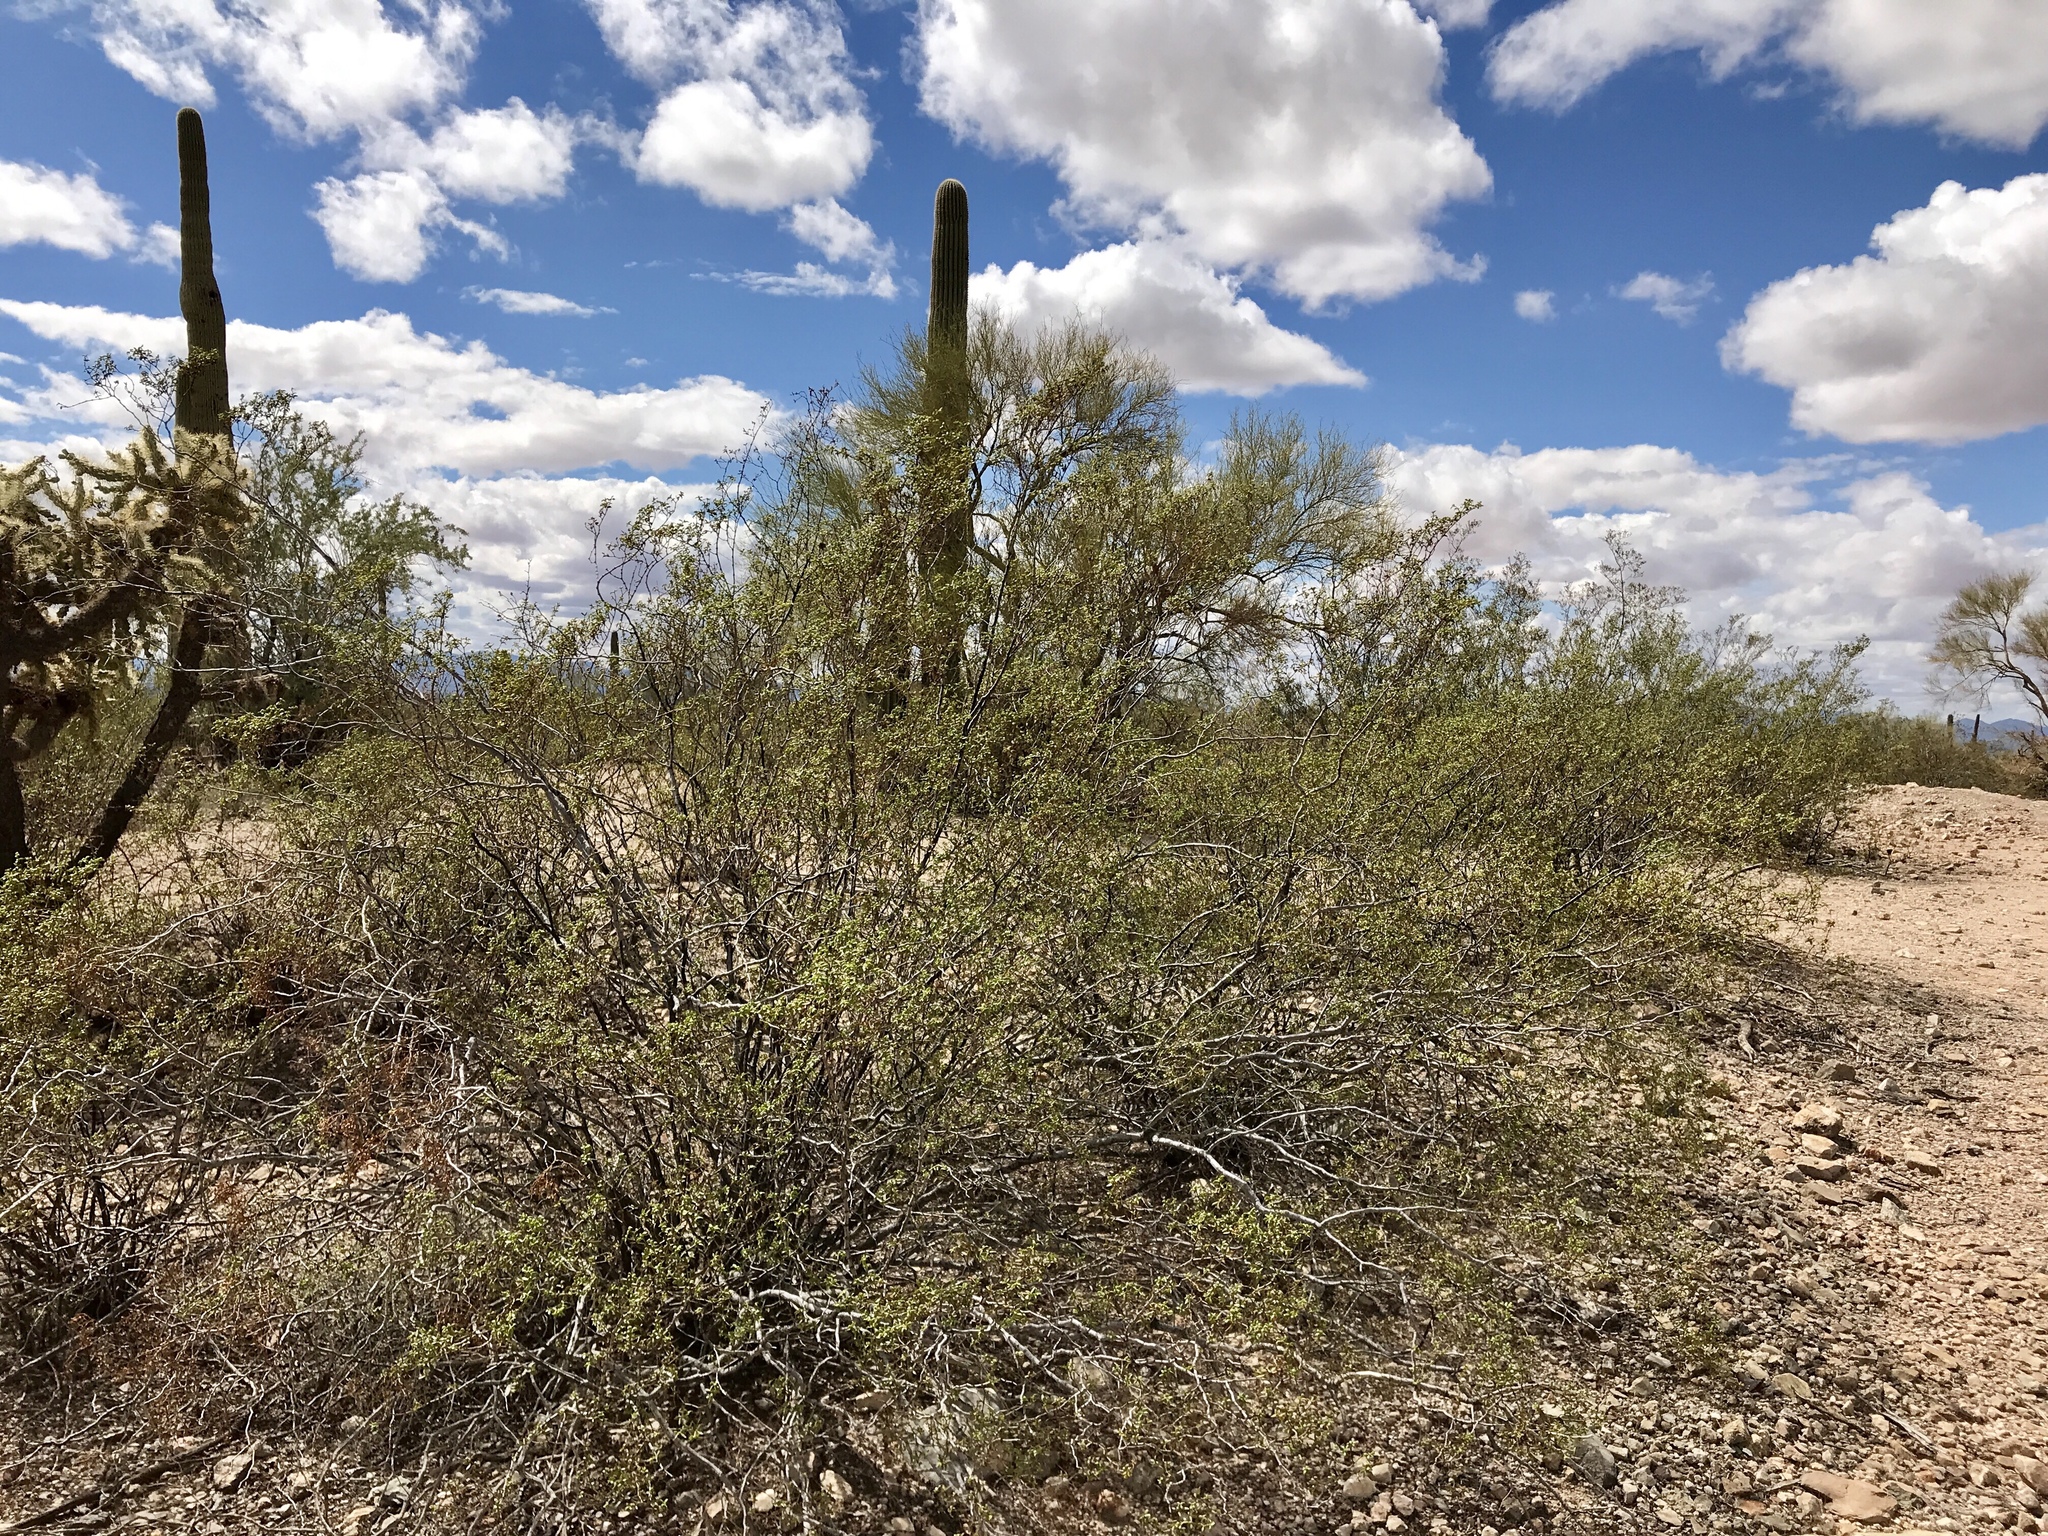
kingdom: Plantae
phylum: Tracheophyta
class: Magnoliopsida
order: Zygophyllales
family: Zygophyllaceae
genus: Larrea
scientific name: Larrea tridentata
